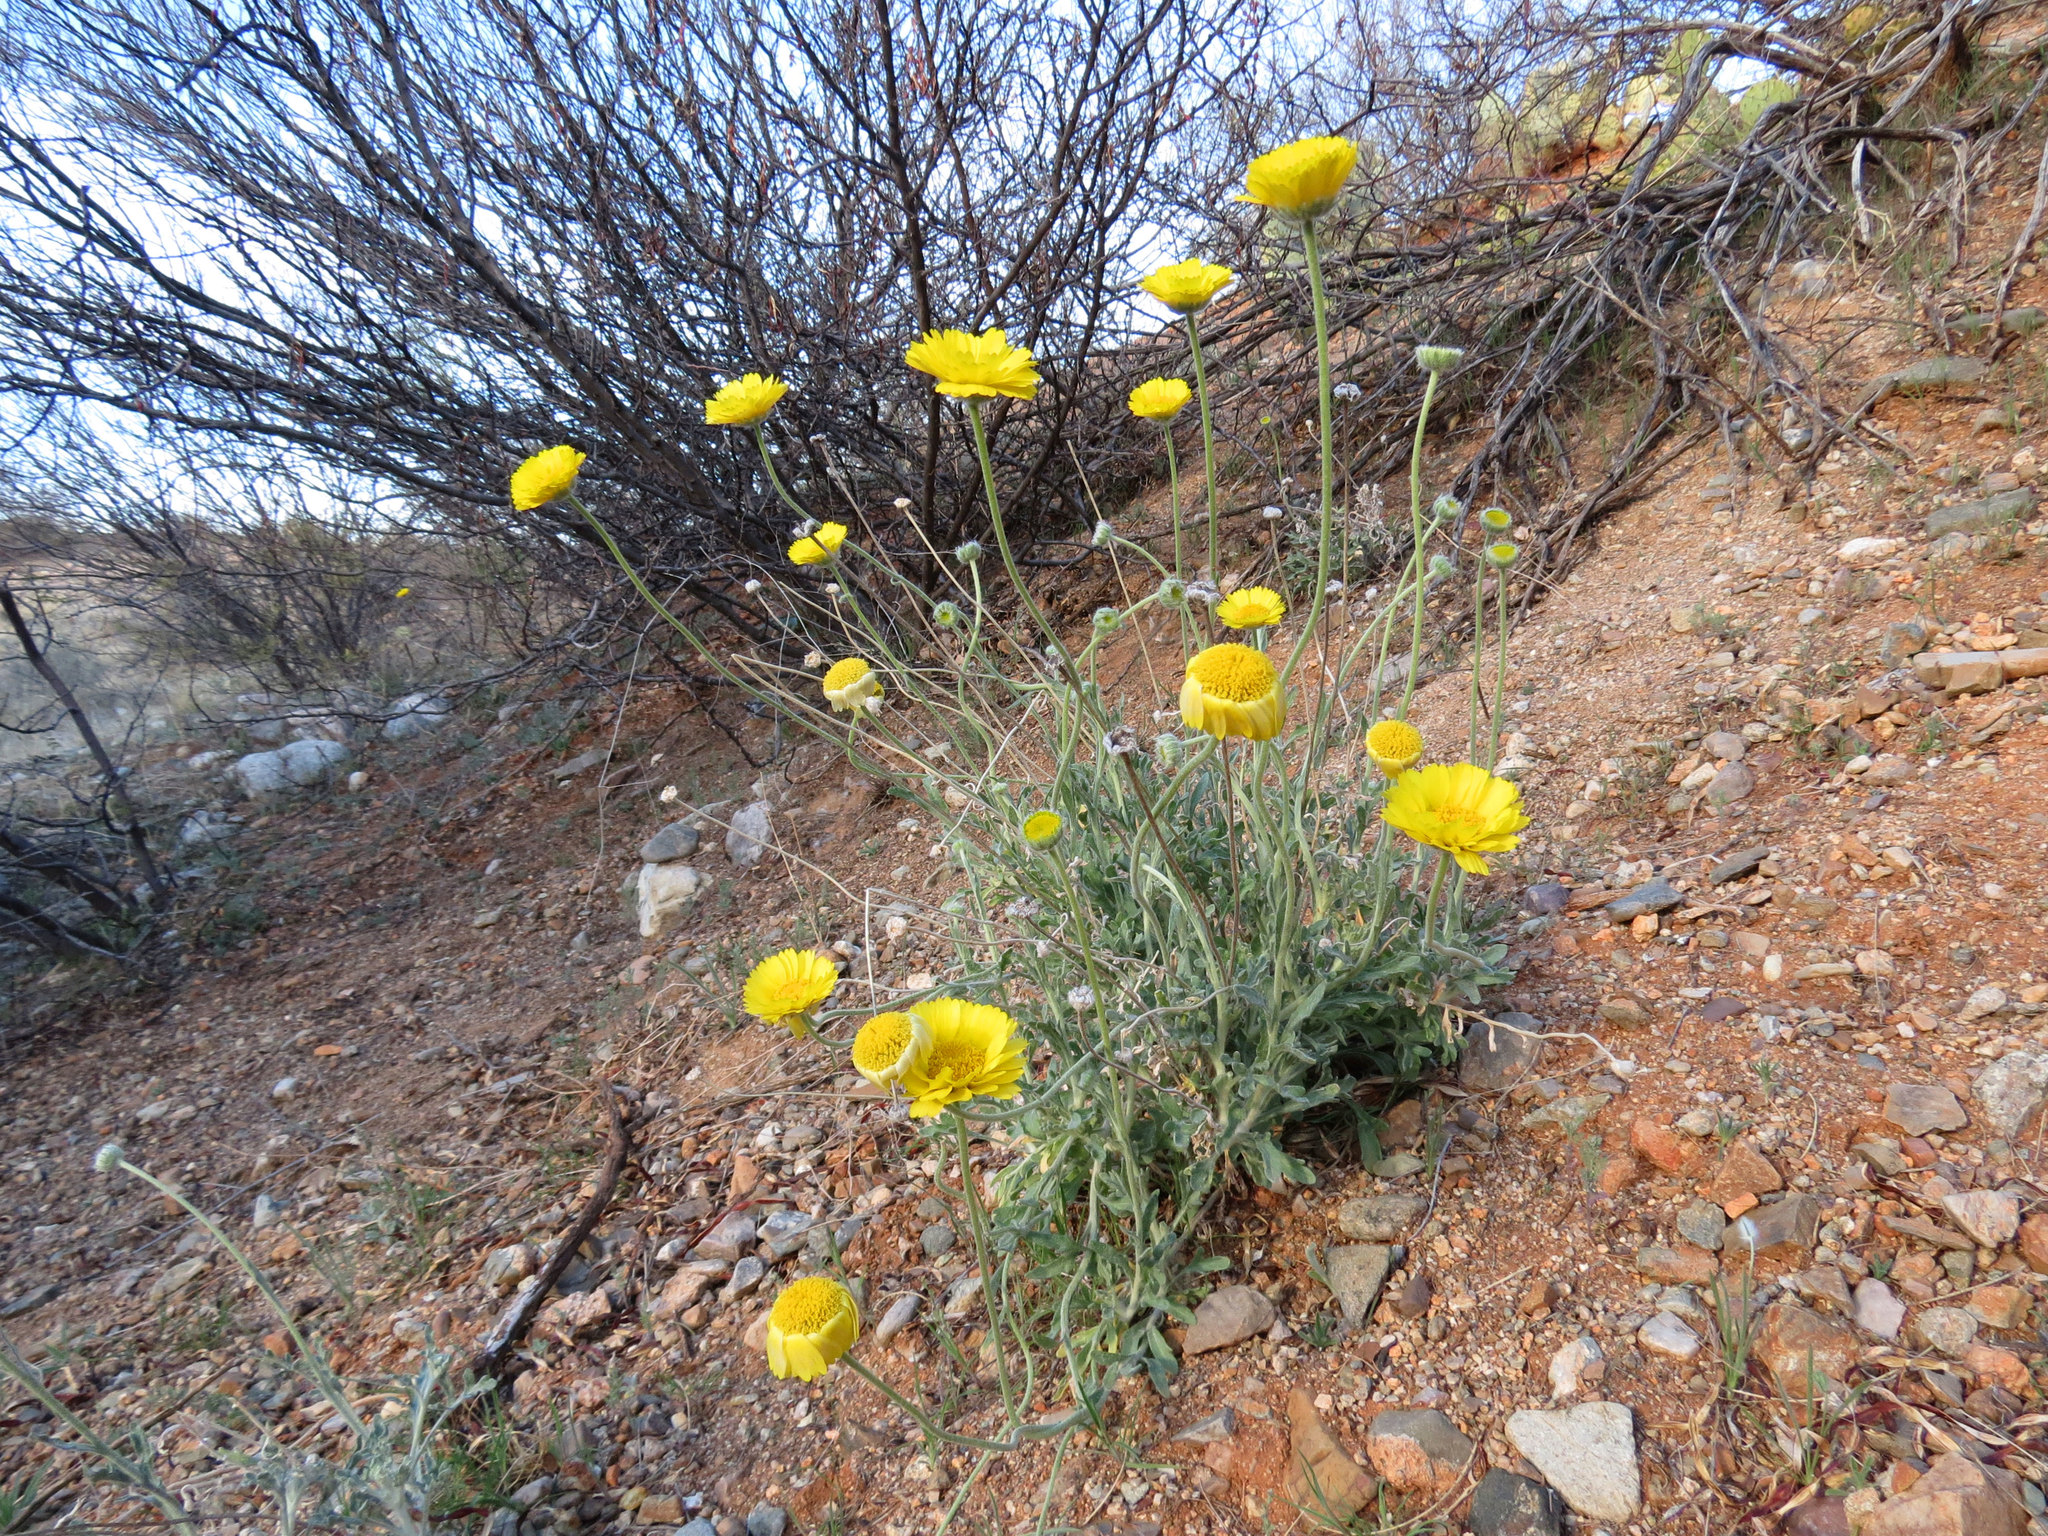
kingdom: Plantae
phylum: Tracheophyta
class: Magnoliopsida
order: Asterales
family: Asteraceae
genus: Baileya
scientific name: Baileya multiradiata
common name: Desert-marigold
